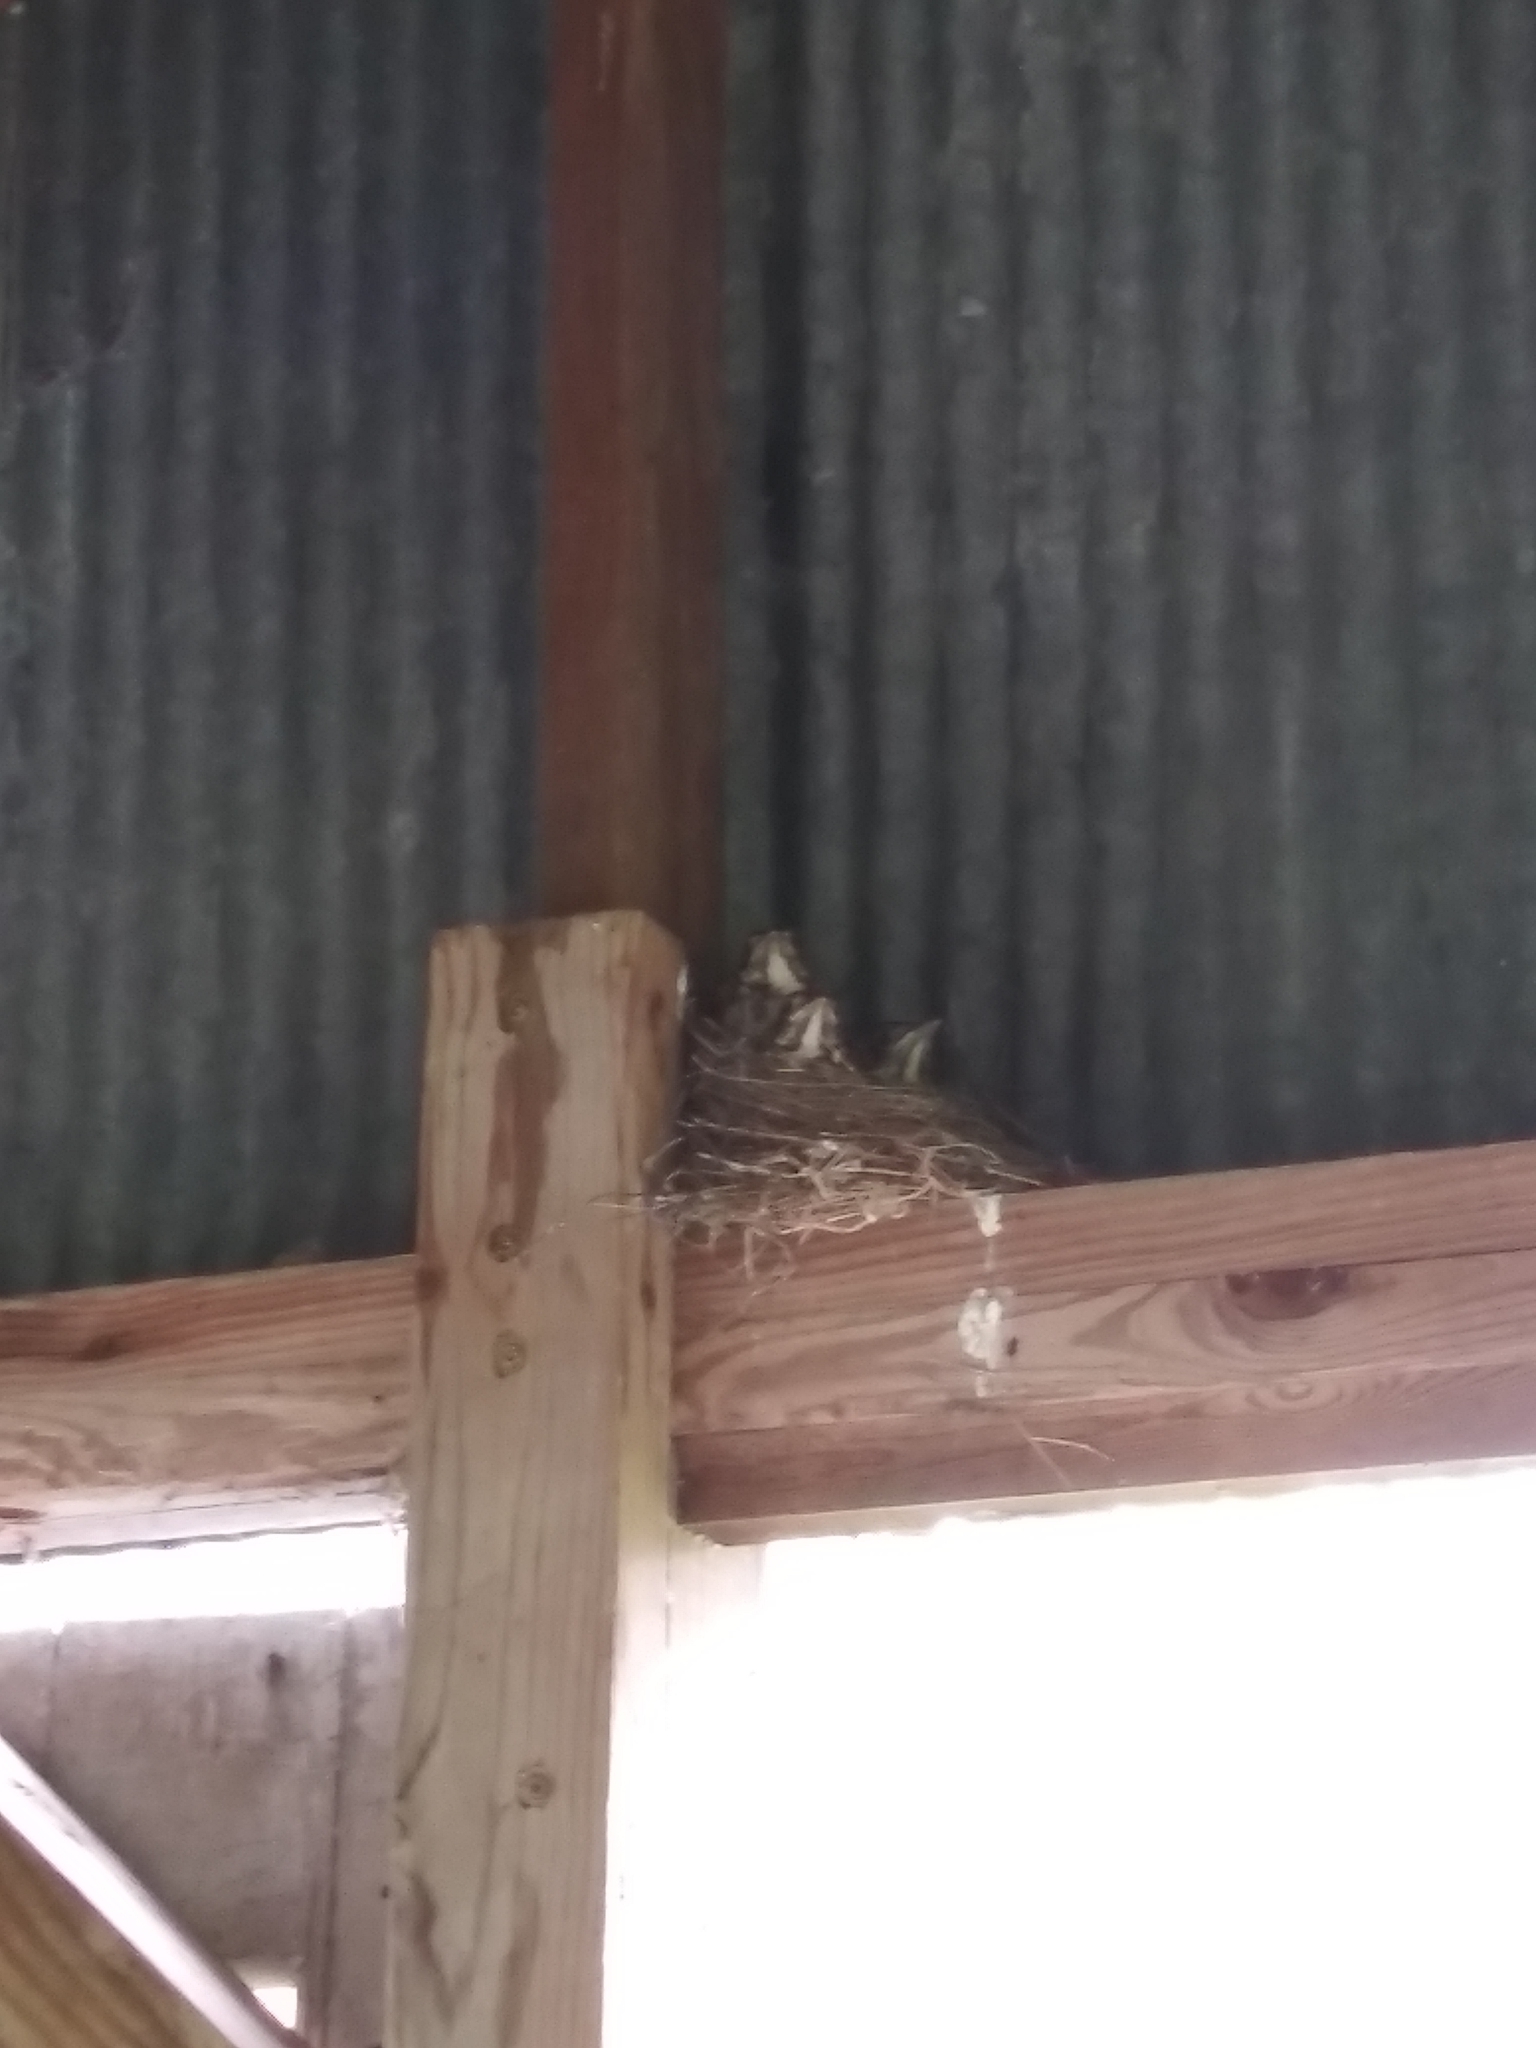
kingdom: Animalia
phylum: Chordata
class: Aves
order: Passeriformes
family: Turdidae
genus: Turdus
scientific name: Turdus migratorius
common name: American robin
